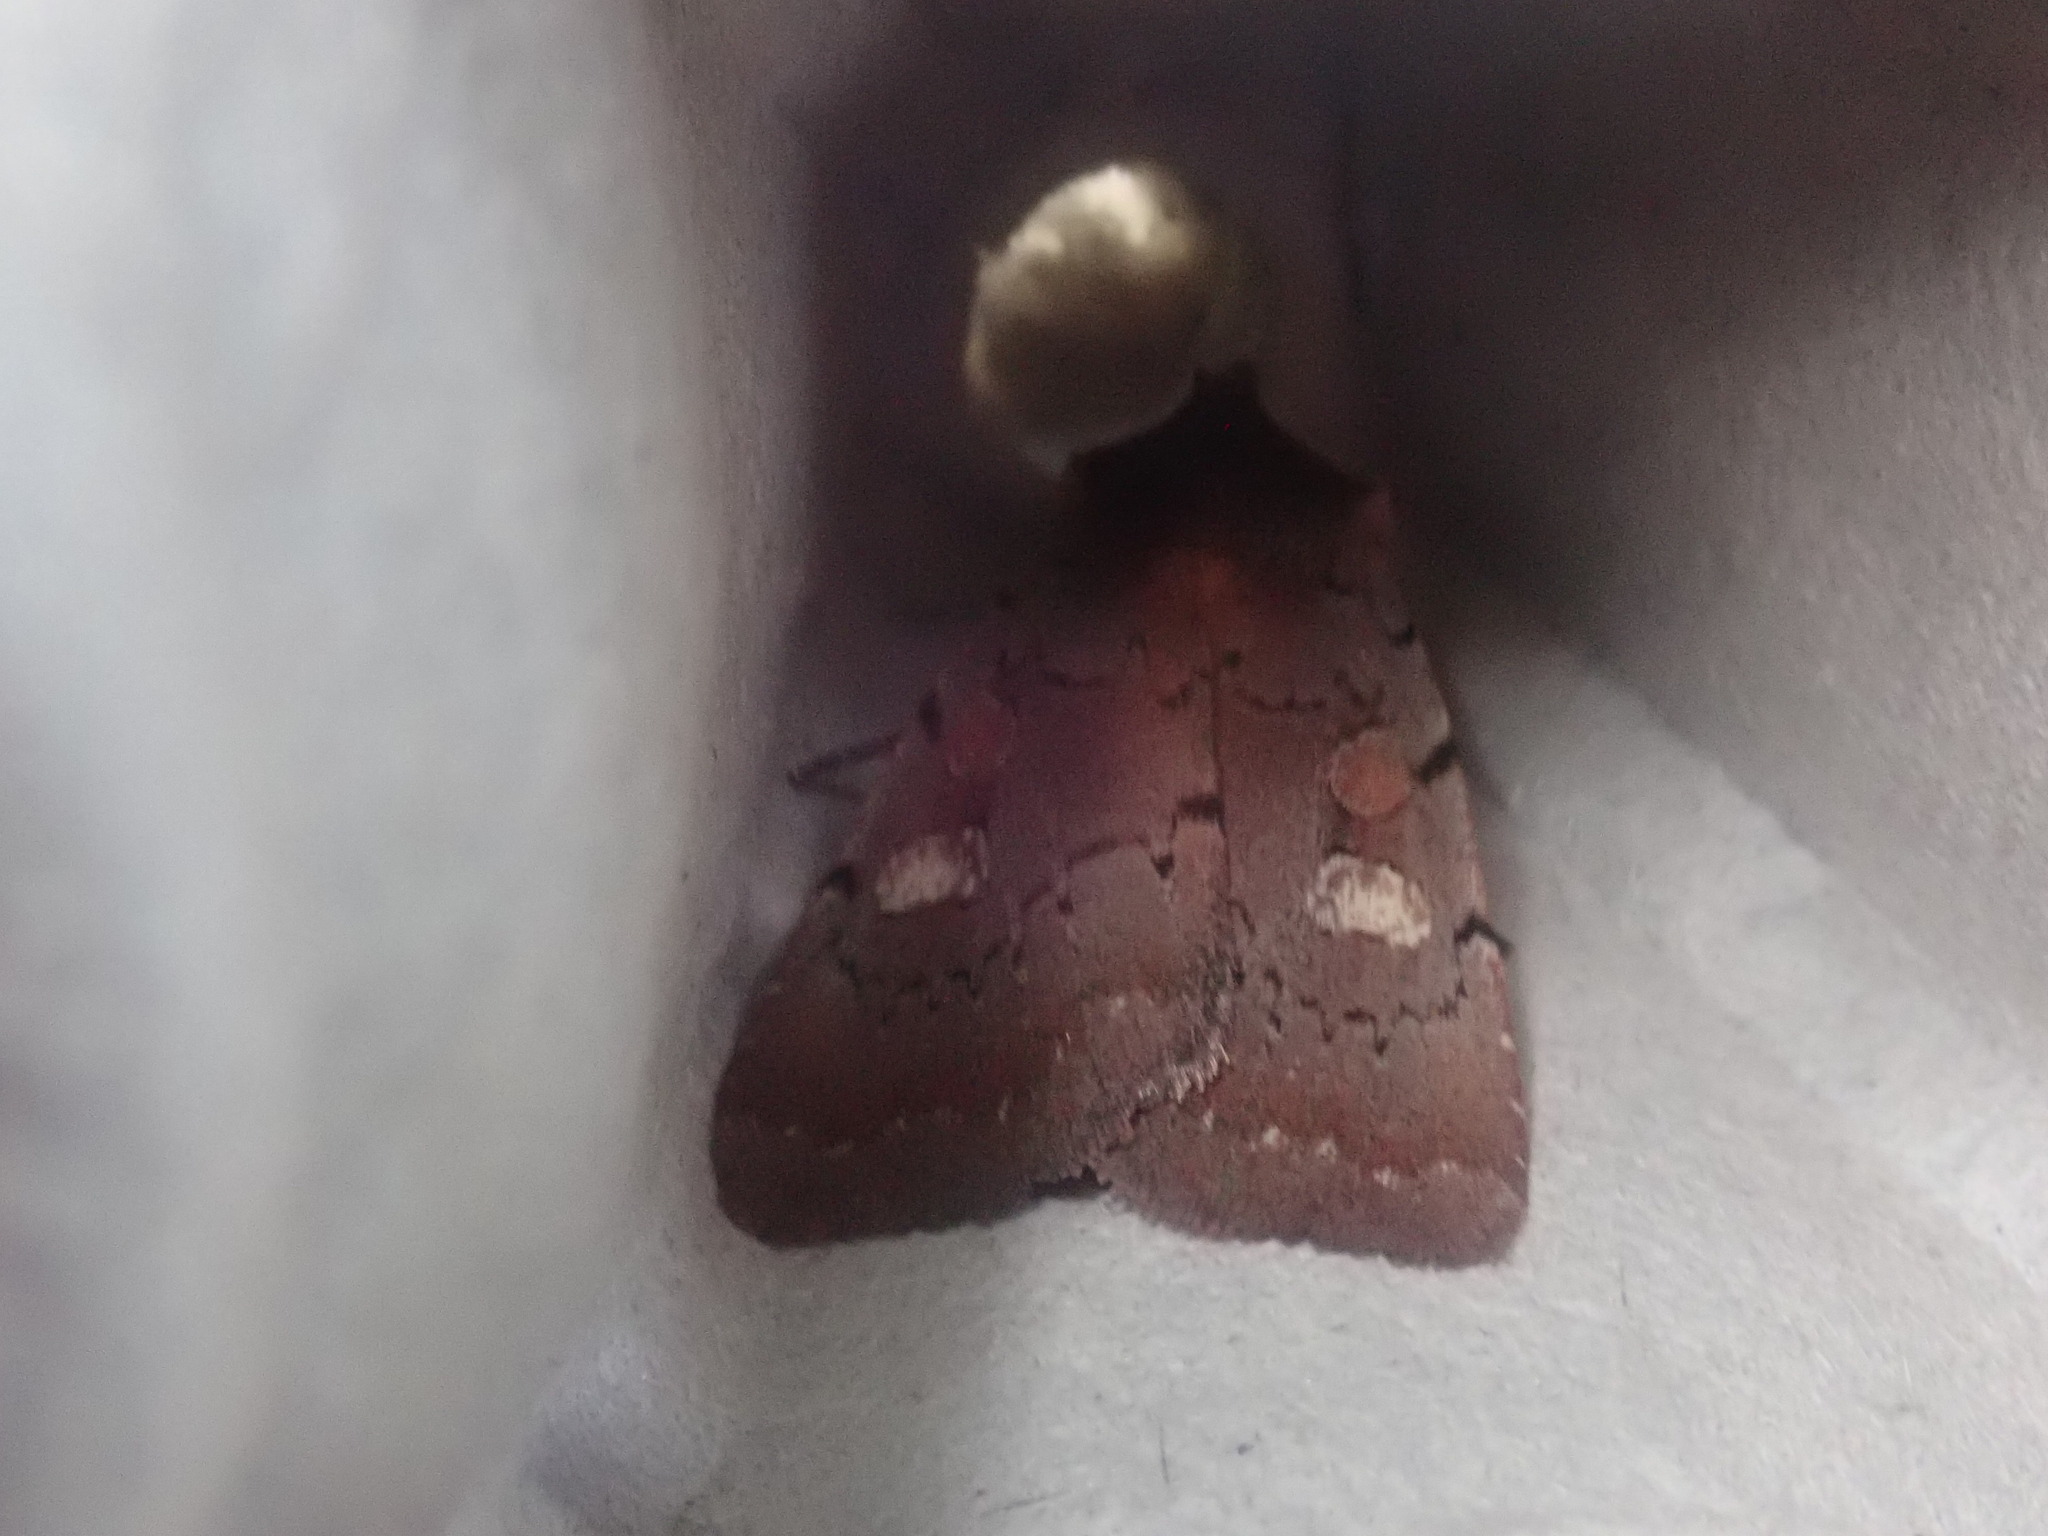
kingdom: Animalia
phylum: Arthropoda
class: Insecta
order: Lepidoptera
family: Noctuidae
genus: Xestia
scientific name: Xestia dilucida
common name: Dull reddish dart
